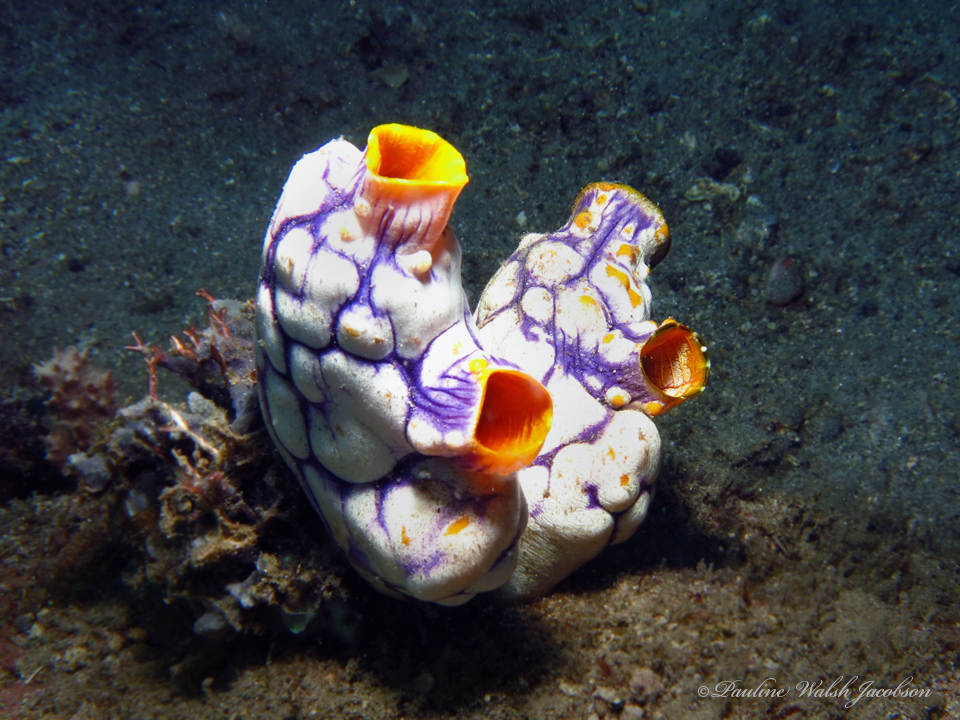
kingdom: Animalia
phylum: Chordata
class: Ascidiacea
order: Stolidobranchia
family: Styelidae
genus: Polycarpa
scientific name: Polycarpa aurata
